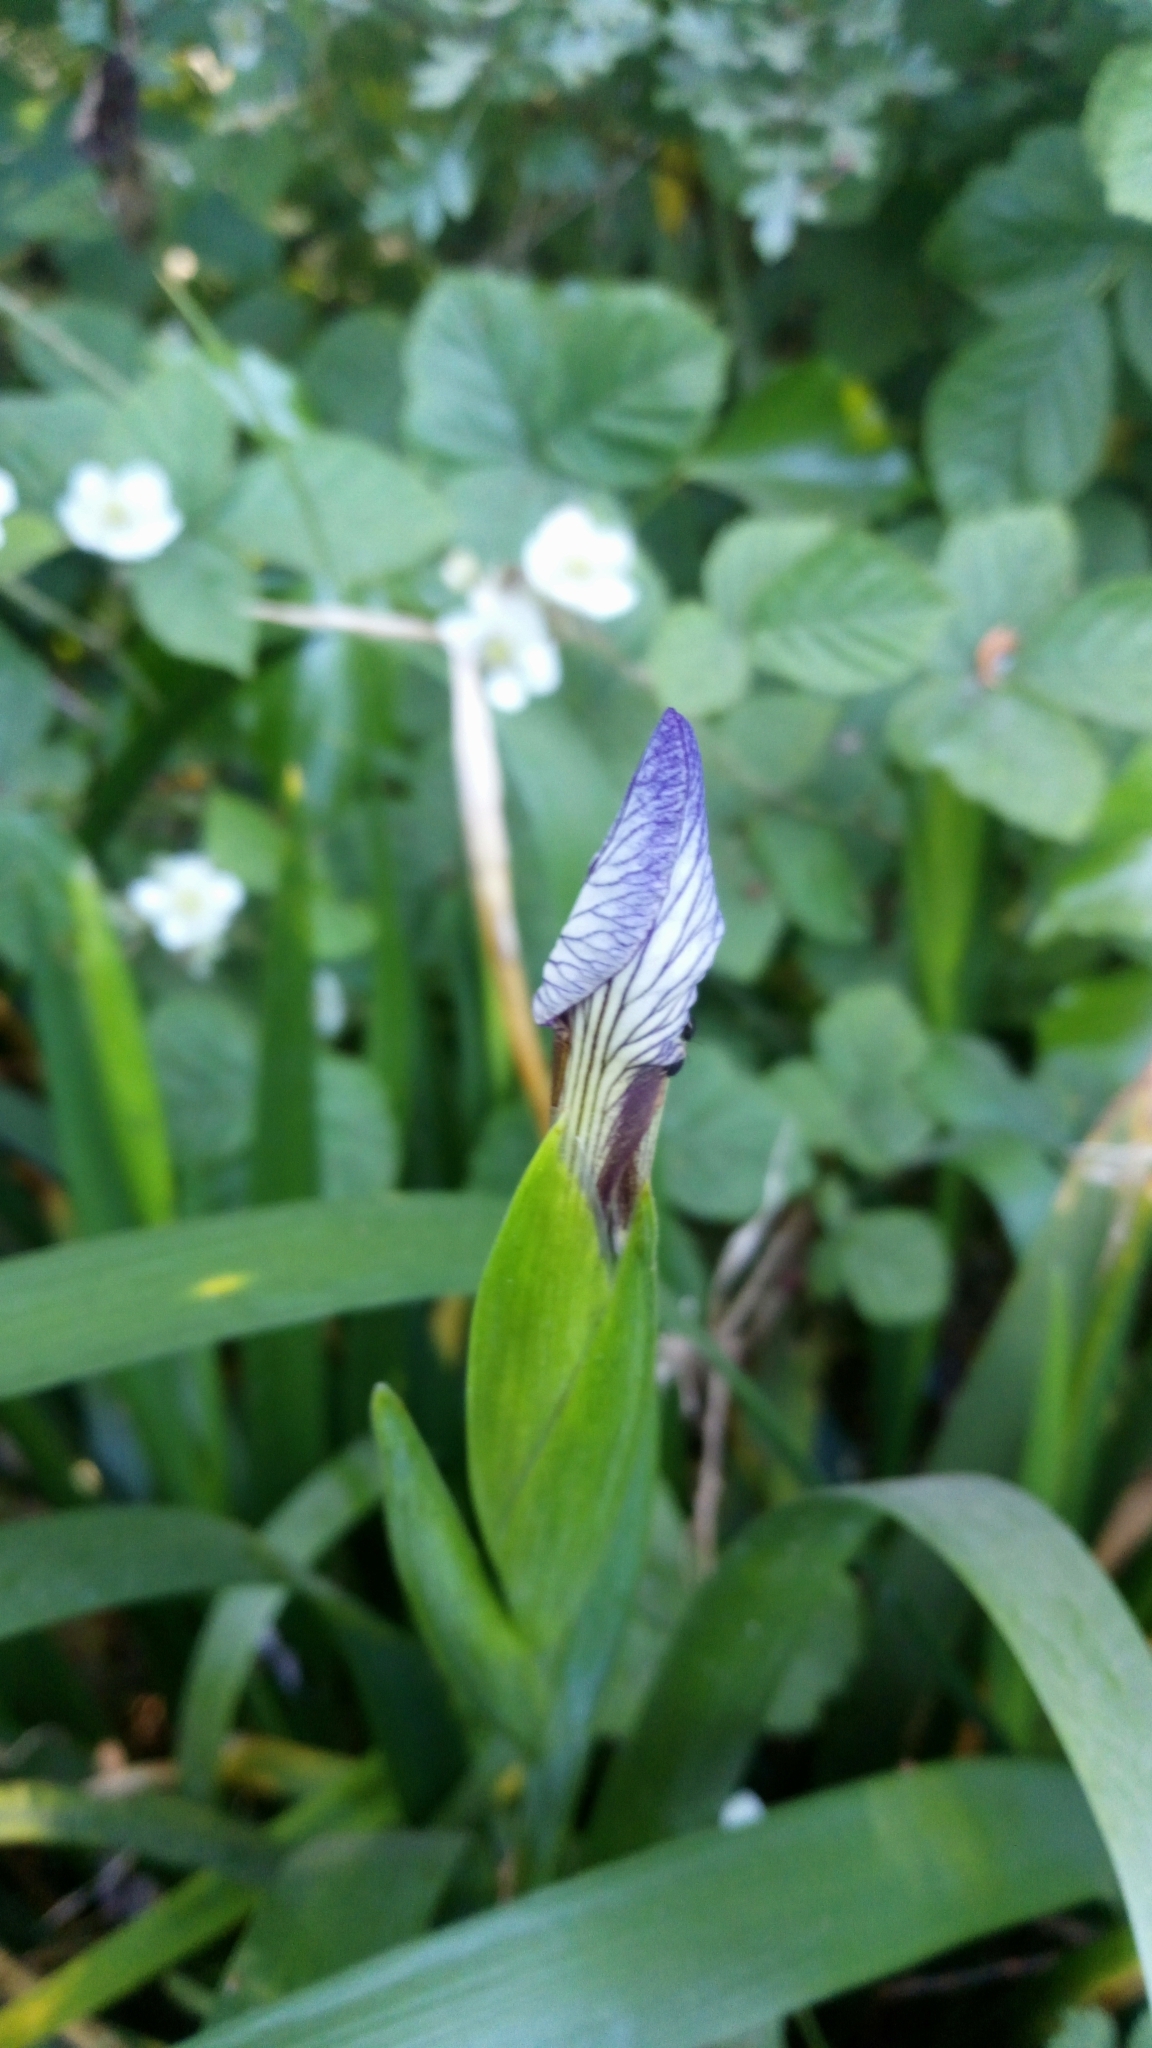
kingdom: Plantae
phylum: Tracheophyta
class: Liliopsida
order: Asparagales
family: Iridaceae
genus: Iris
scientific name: Iris foetidissima
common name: Stinking iris
